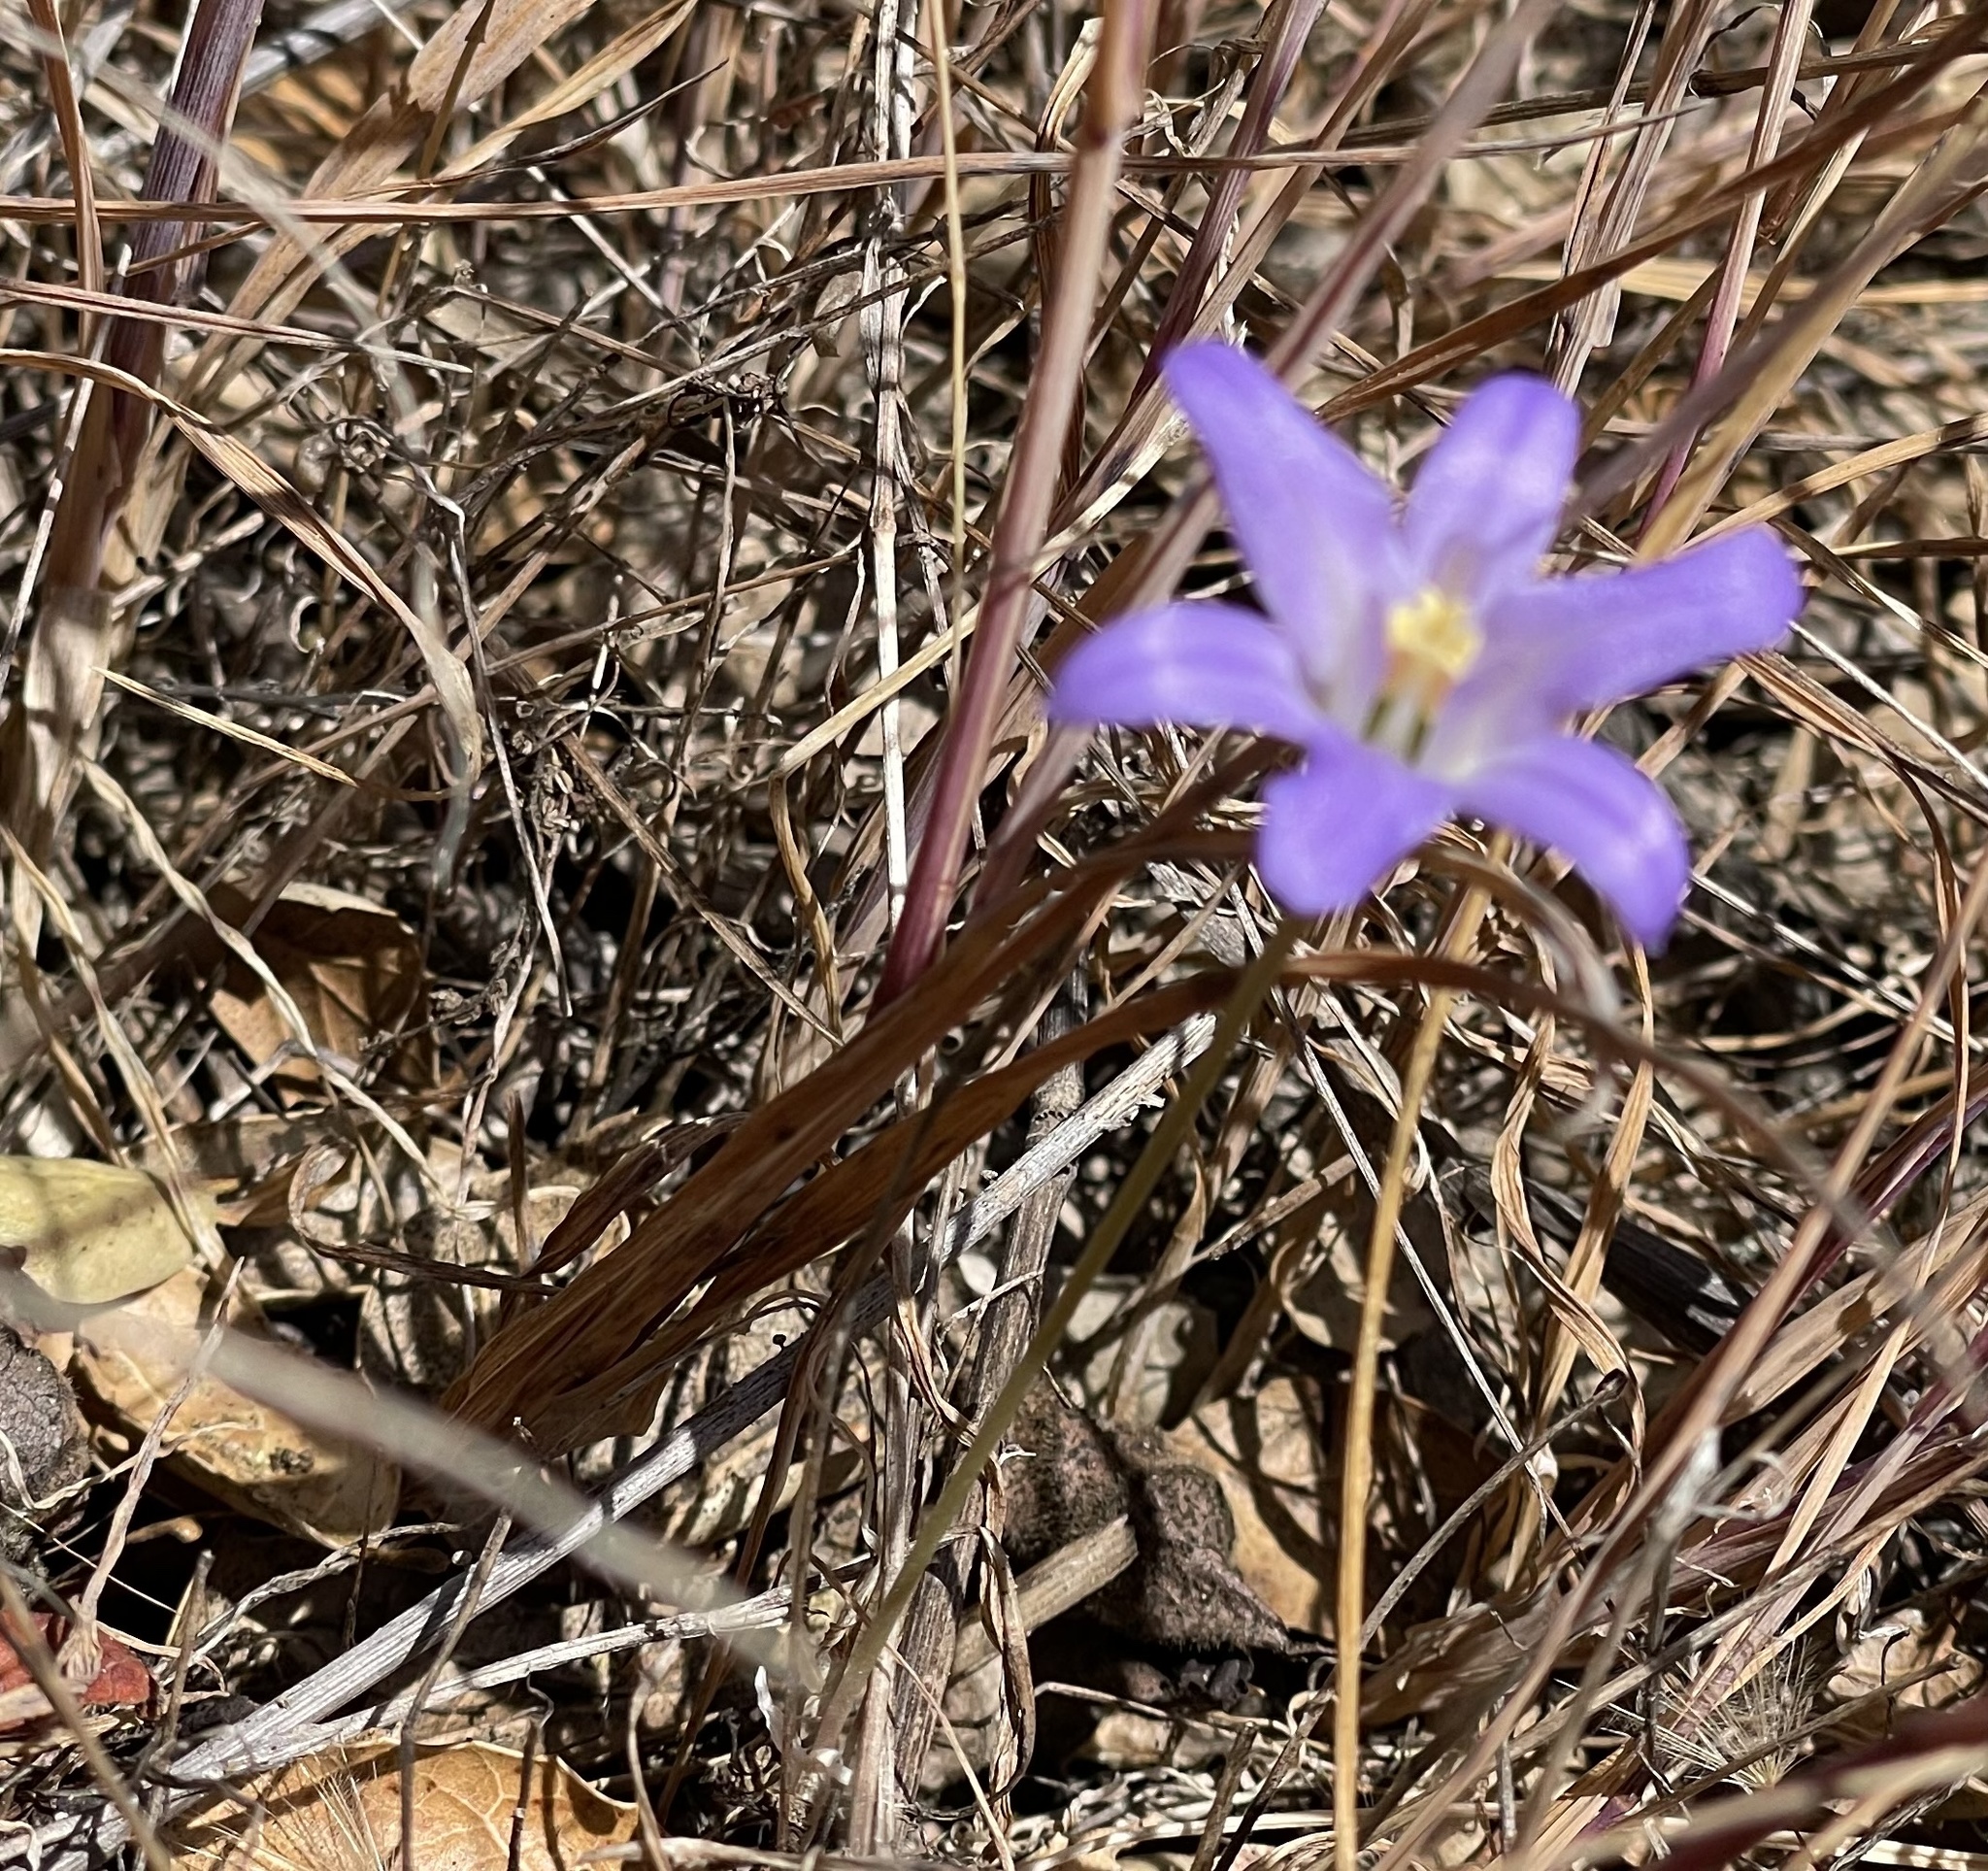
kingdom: Plantae
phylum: Tracheophyta
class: Liliopsida
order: Asparagales
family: Asparagaceae
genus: Brodiaea
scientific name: Brodiaea terrestris
